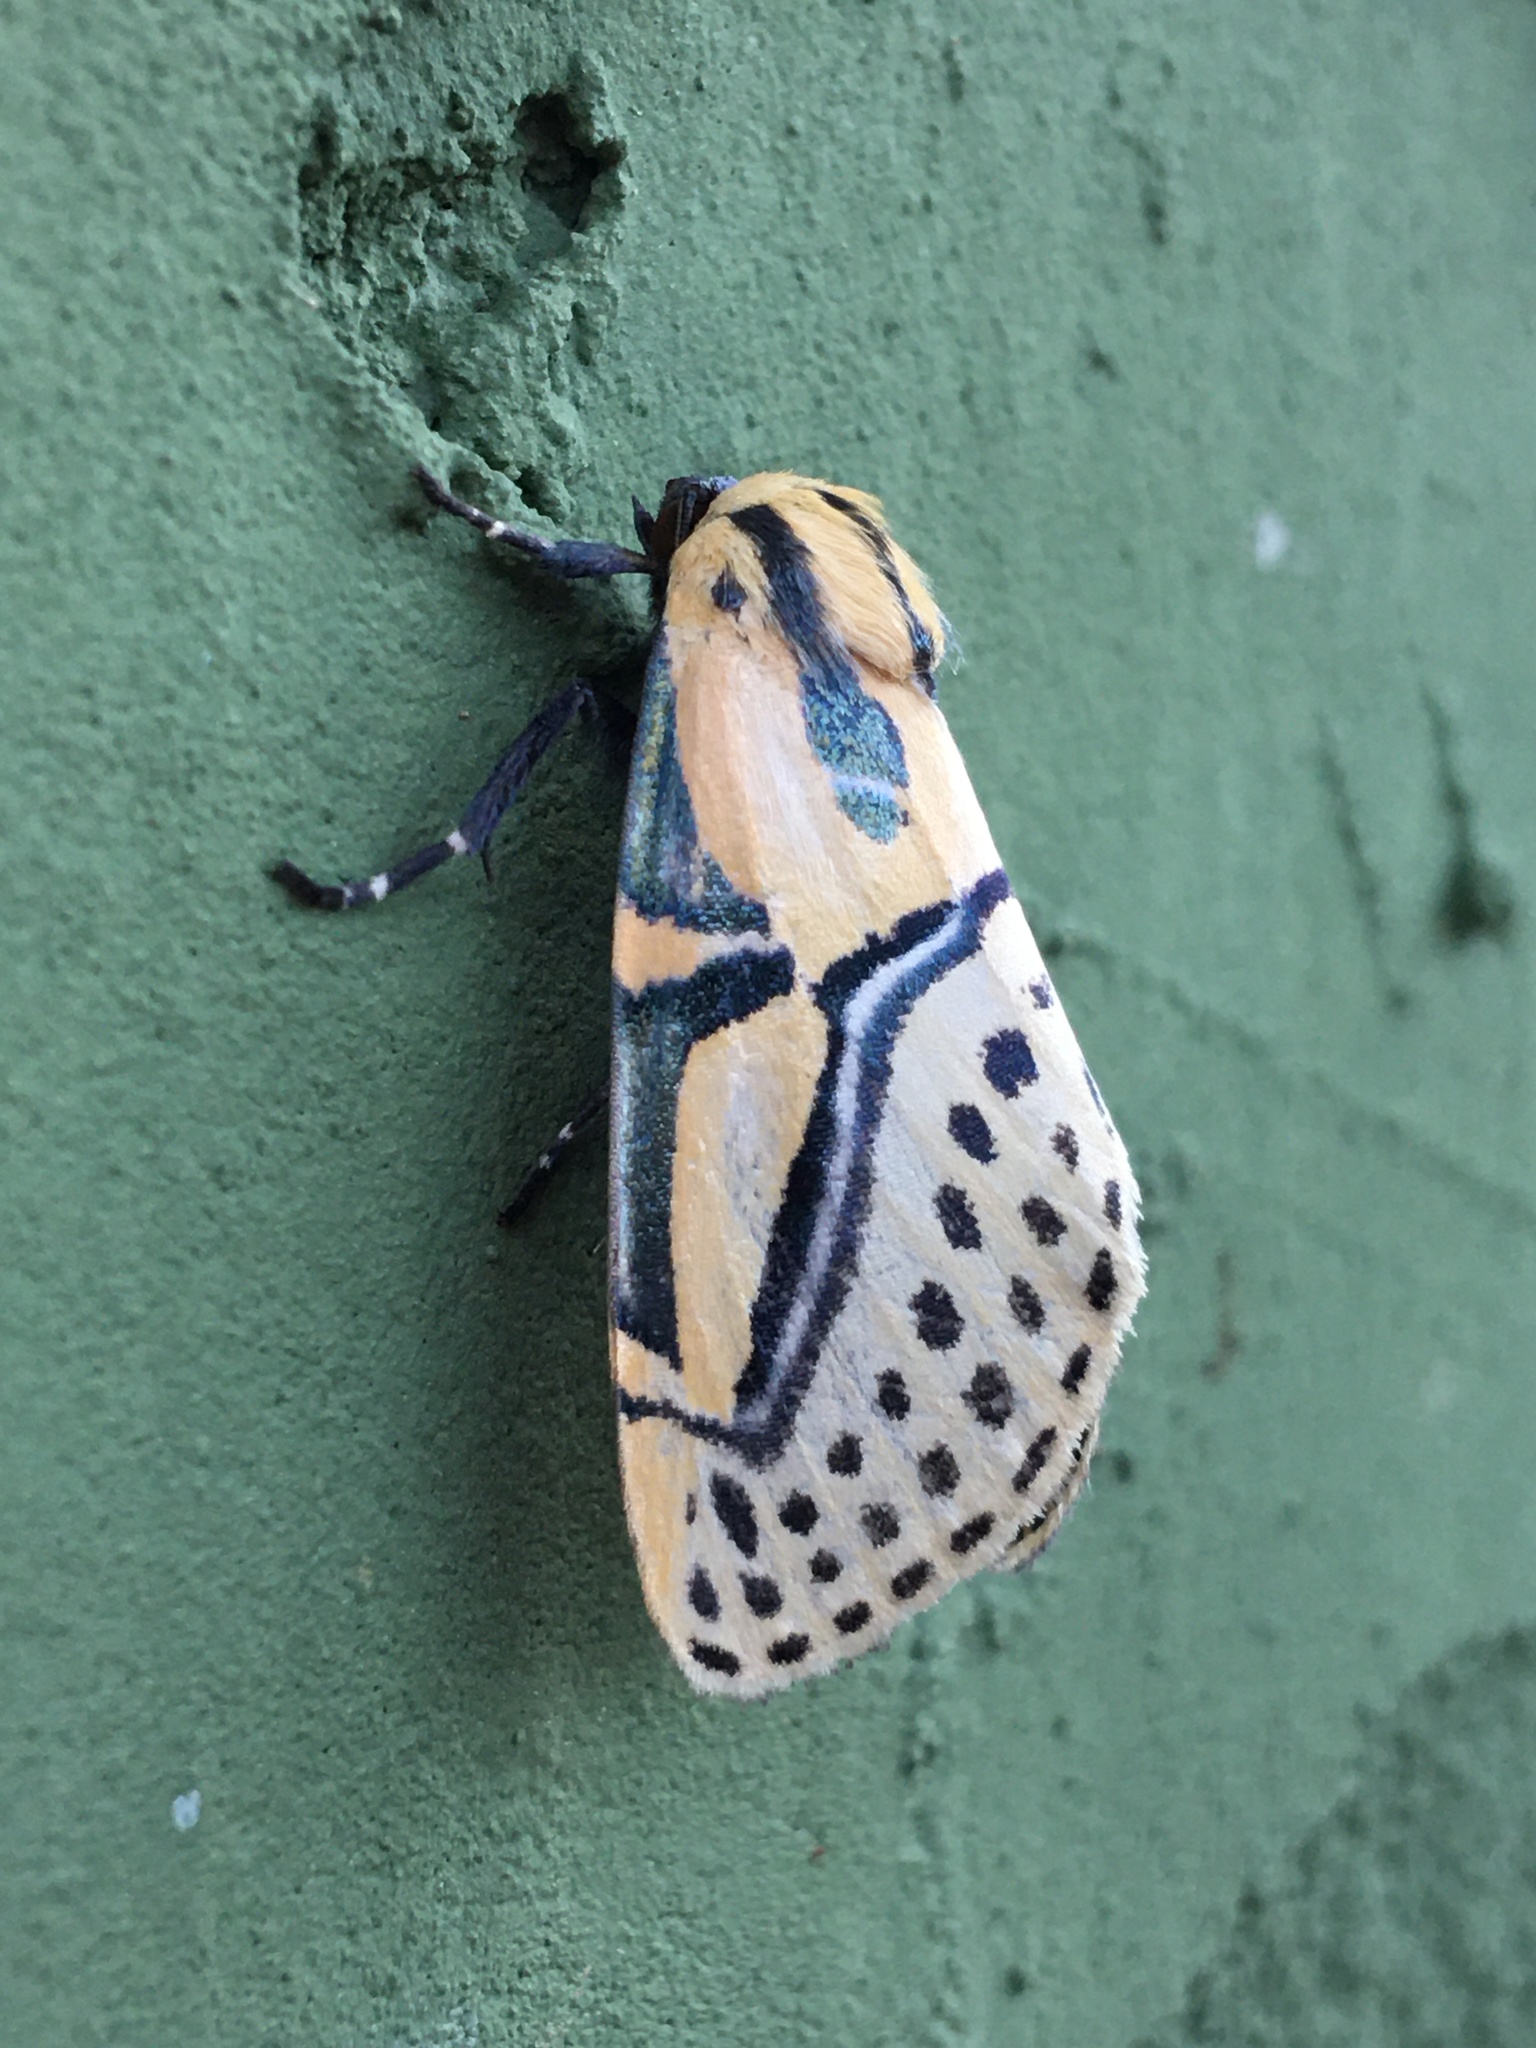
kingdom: Animalia
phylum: Arthropoda
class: Insecta
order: Lepidoptera
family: Erebidae
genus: Diphthera
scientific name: Diphthera festiva
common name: Hieroglyphic moth
